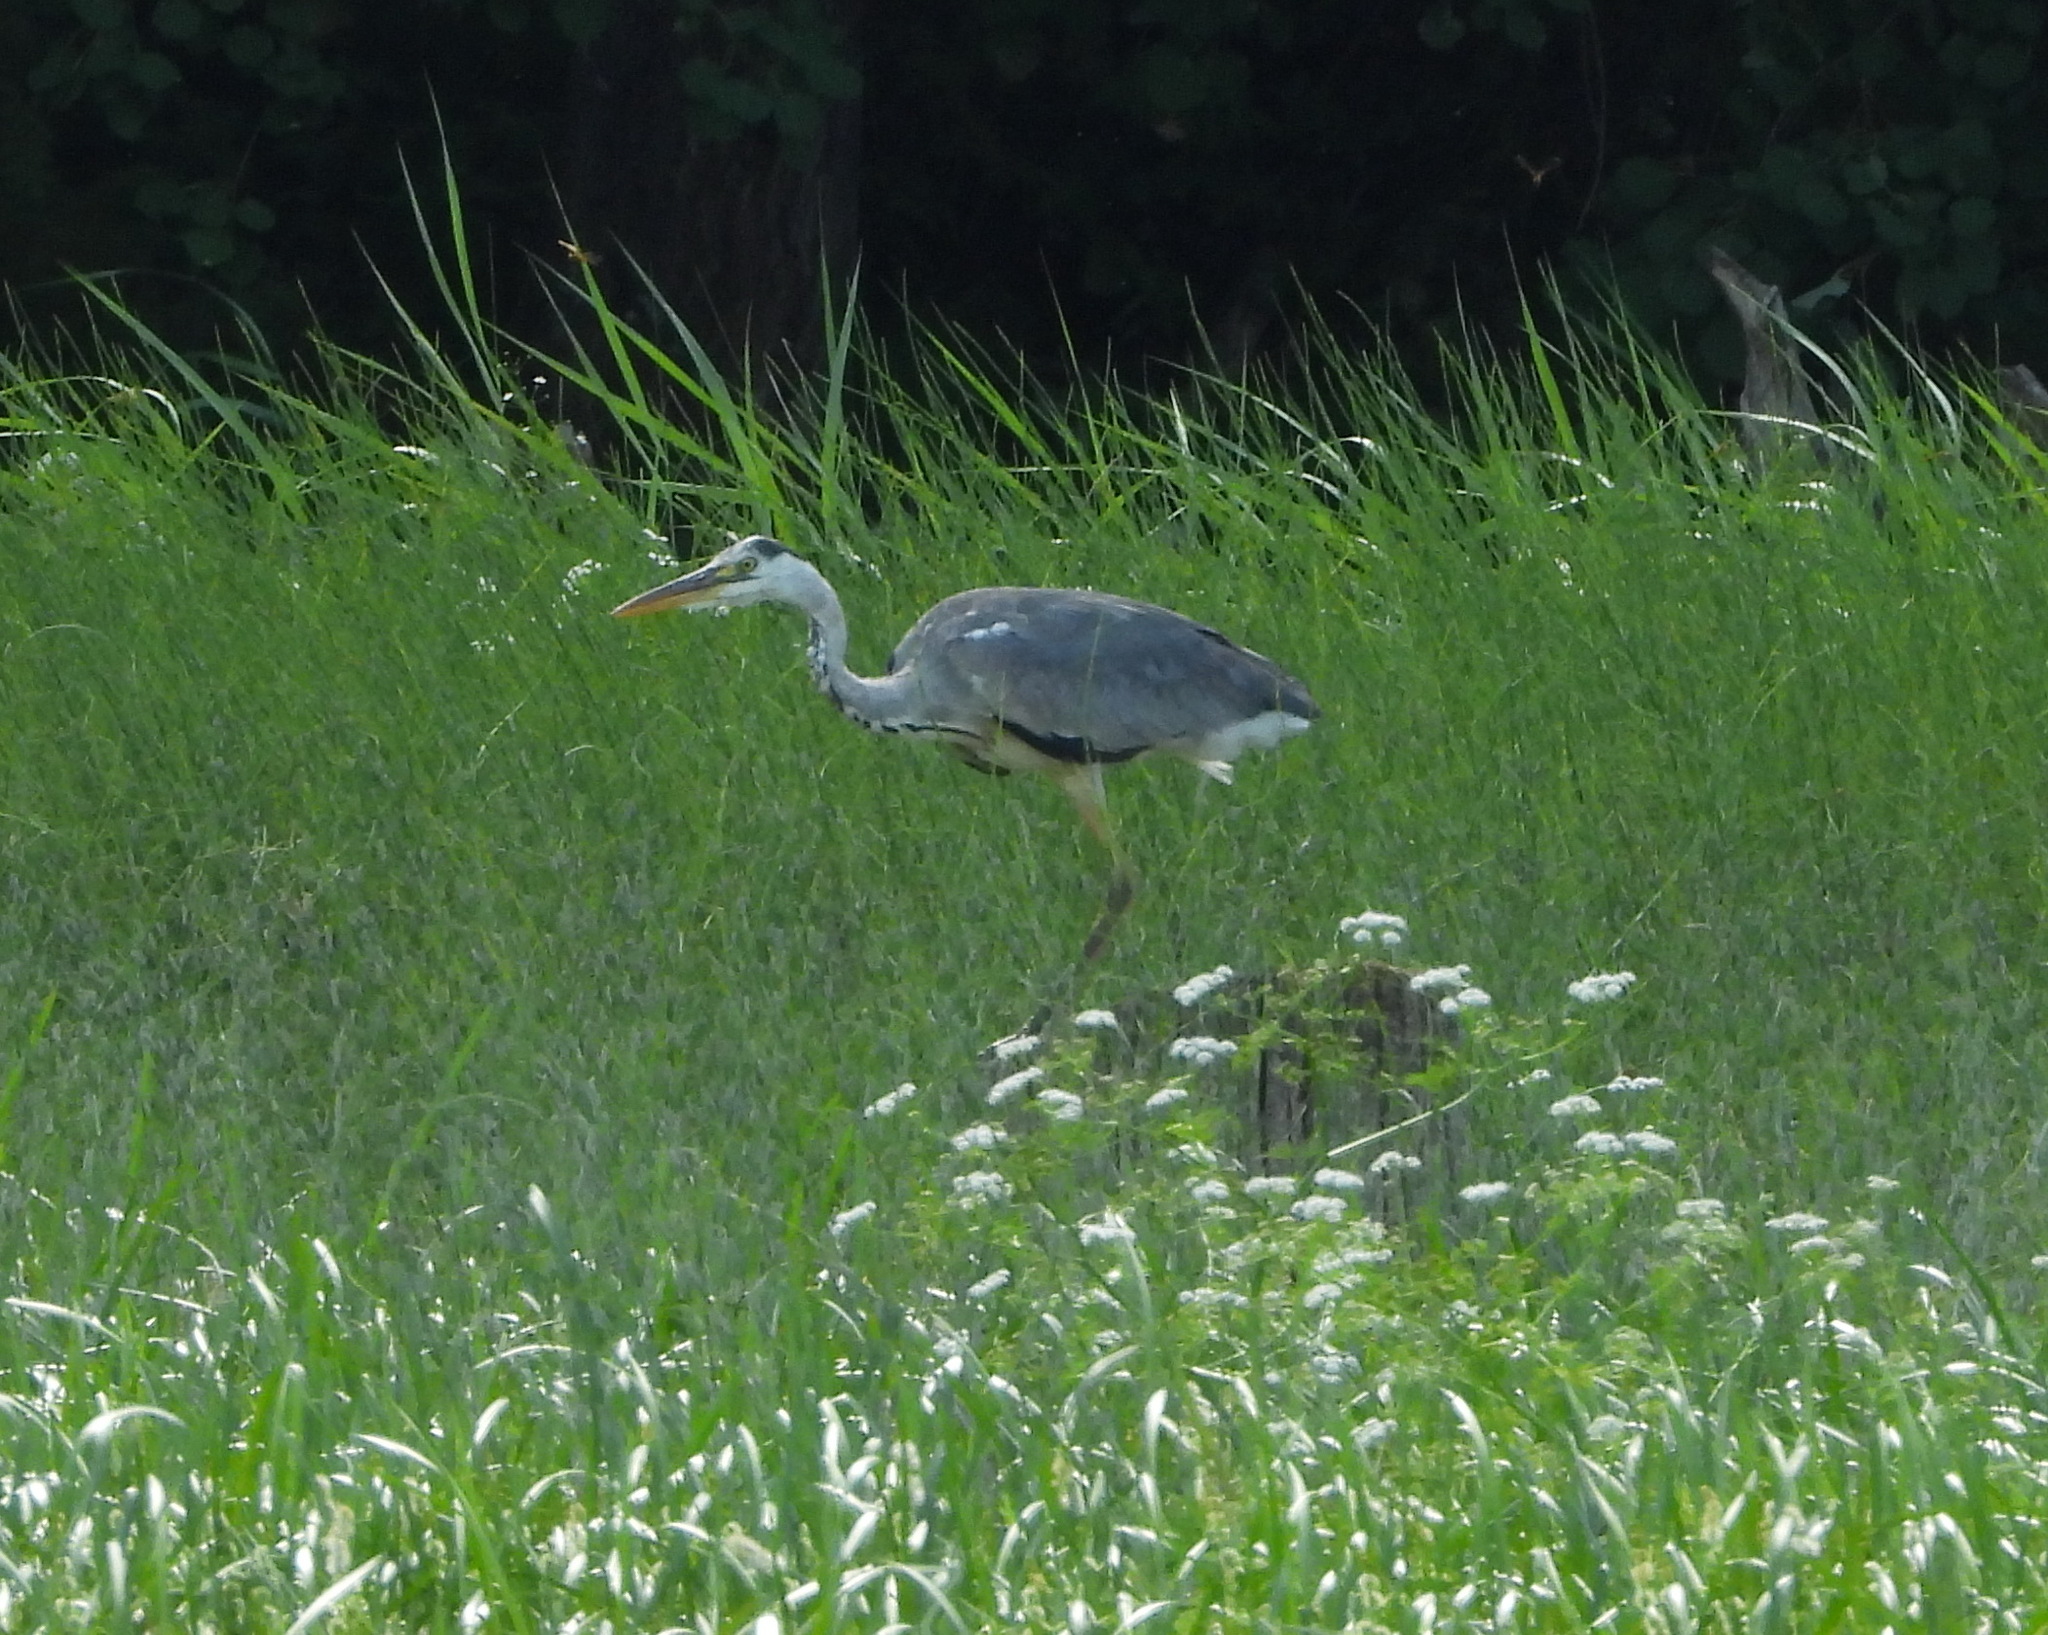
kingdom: Animalia
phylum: Chordata
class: Aves
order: Pelecaniformes
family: Ardeidae
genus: Ardea
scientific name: Ardea cinerea
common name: Grey heron
